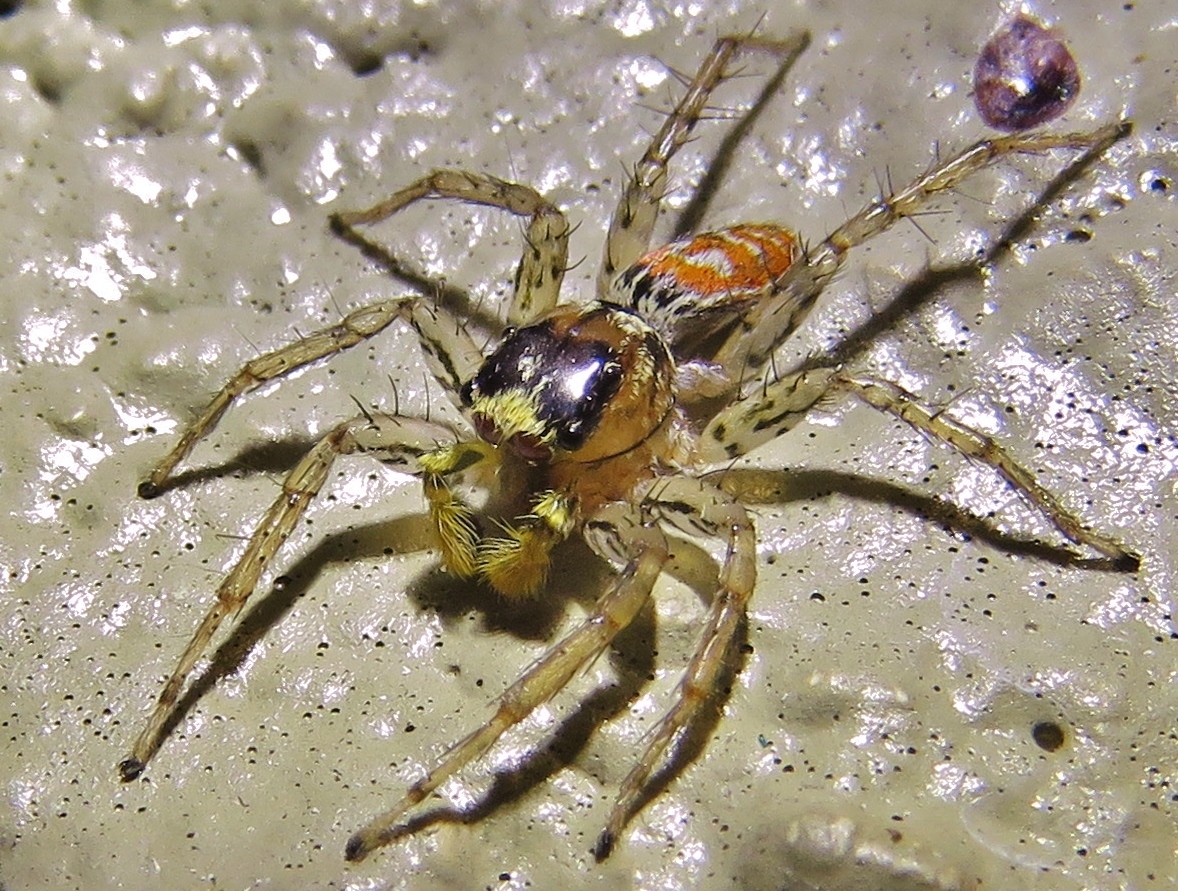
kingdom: Animalia
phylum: Arthropoda
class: Arachnida
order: Araneae
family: Salticidae
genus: Maevia
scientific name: Maevia inclemens
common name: Dimorphic jumper
